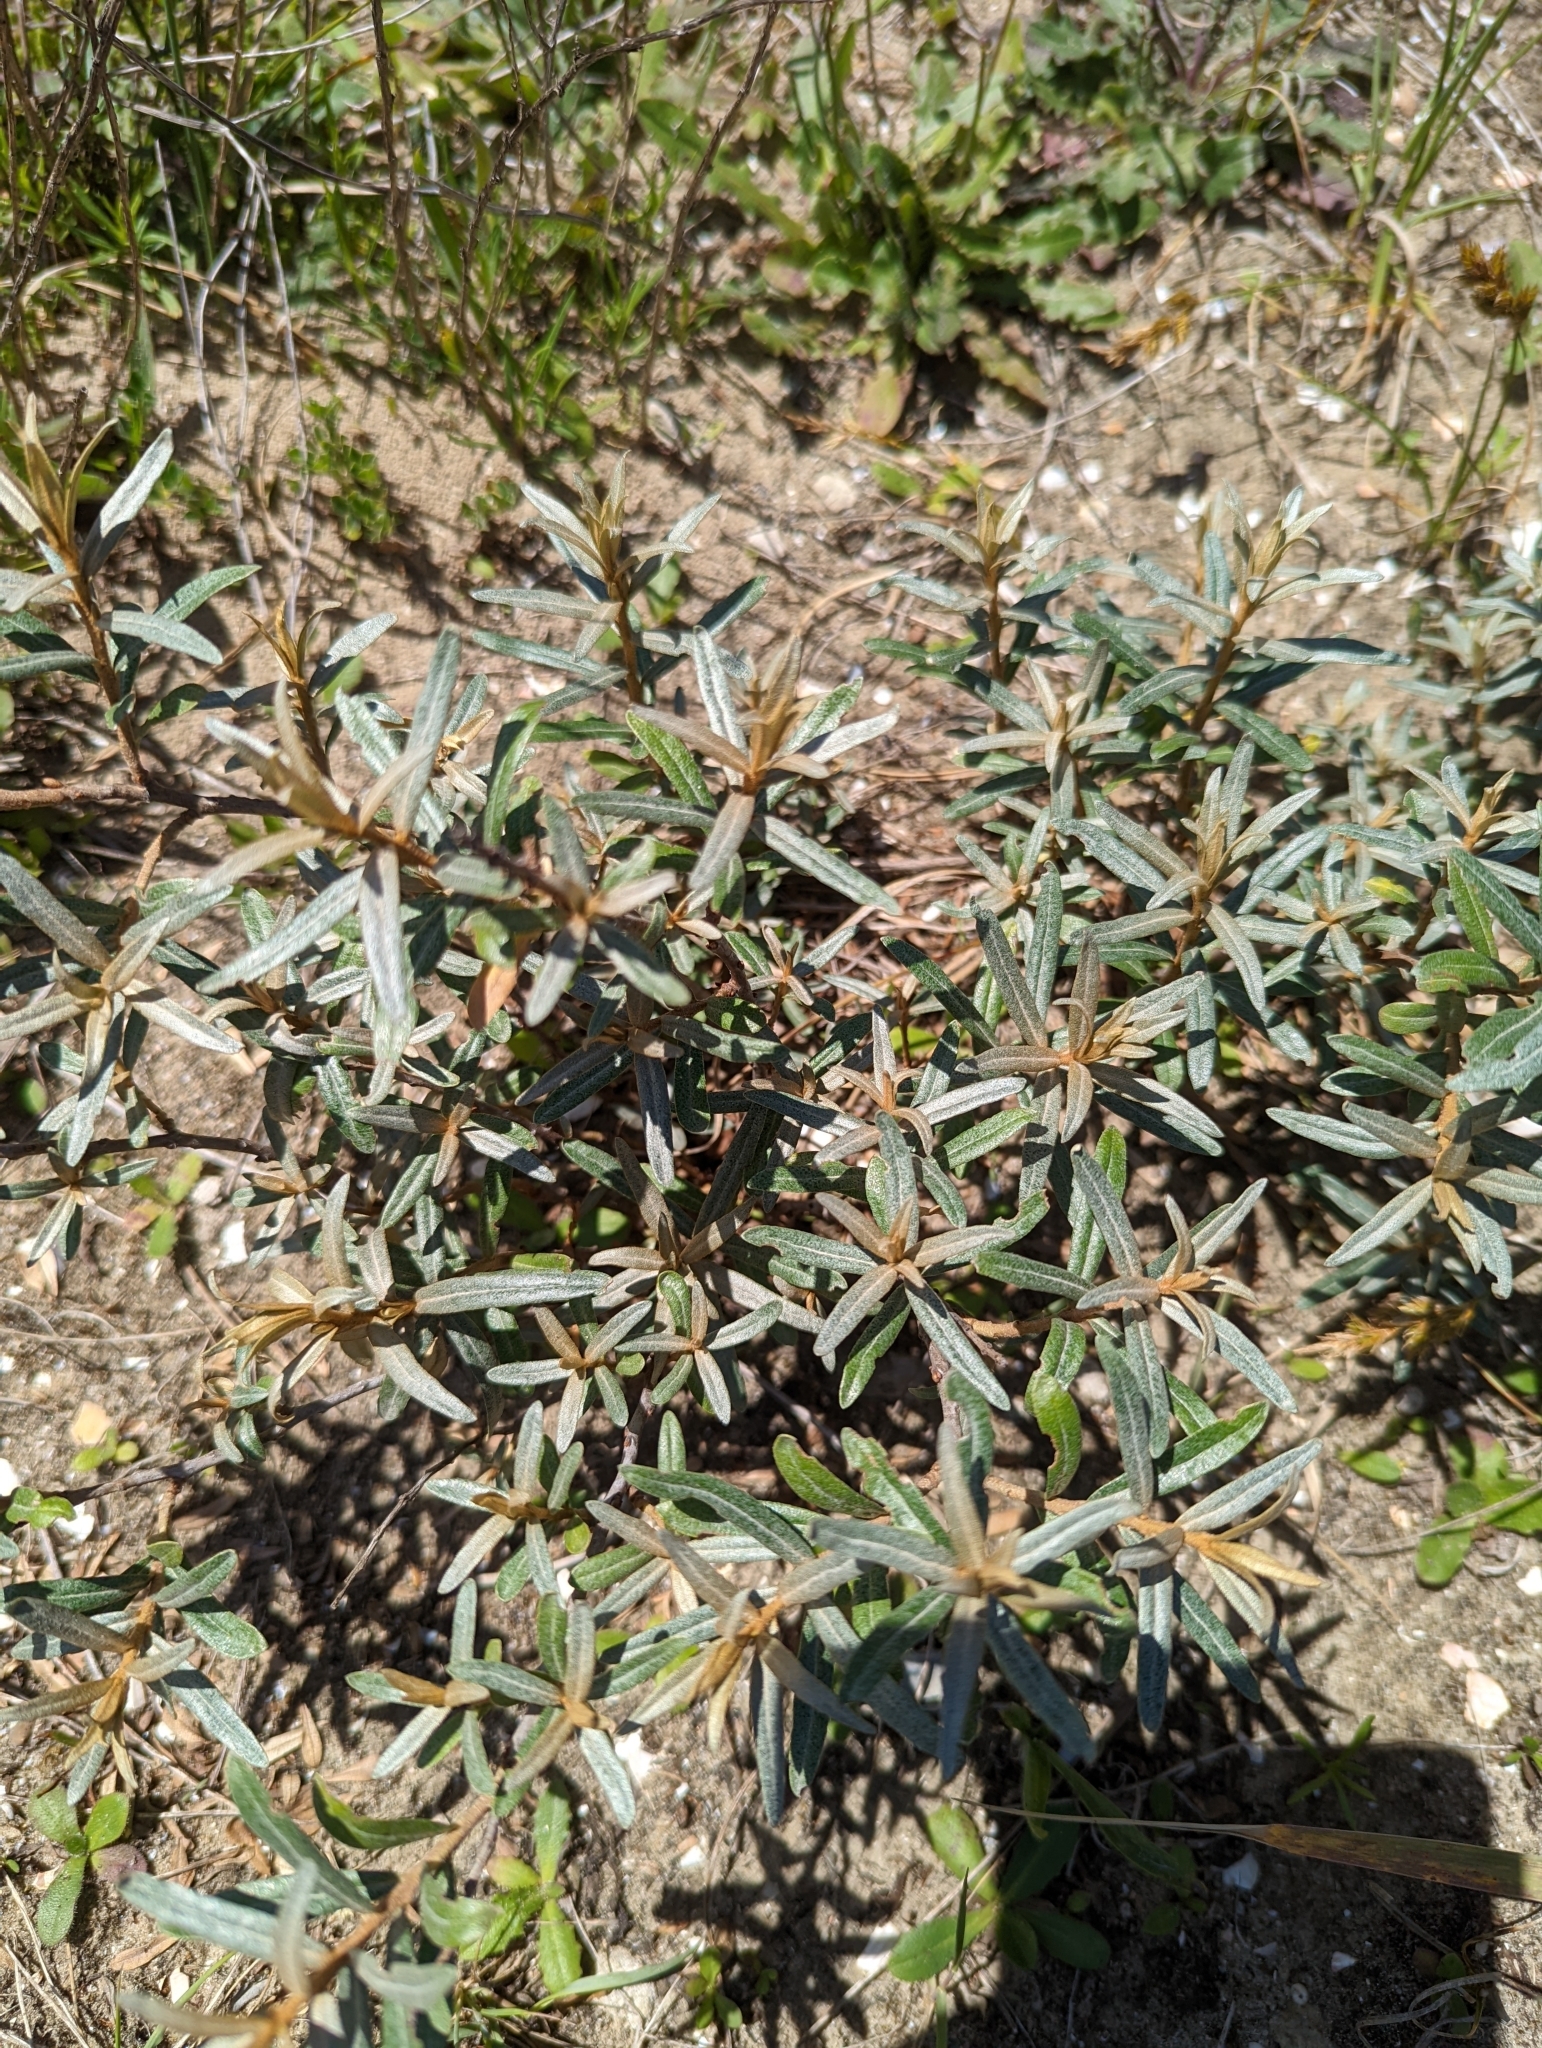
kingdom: Plantae
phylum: Tracheophyta
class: Magnoliopsida
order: Rosales
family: Elaeagnaceae
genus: Hippophae
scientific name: Hippophae rhamnoides
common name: Sea-buckthorn
